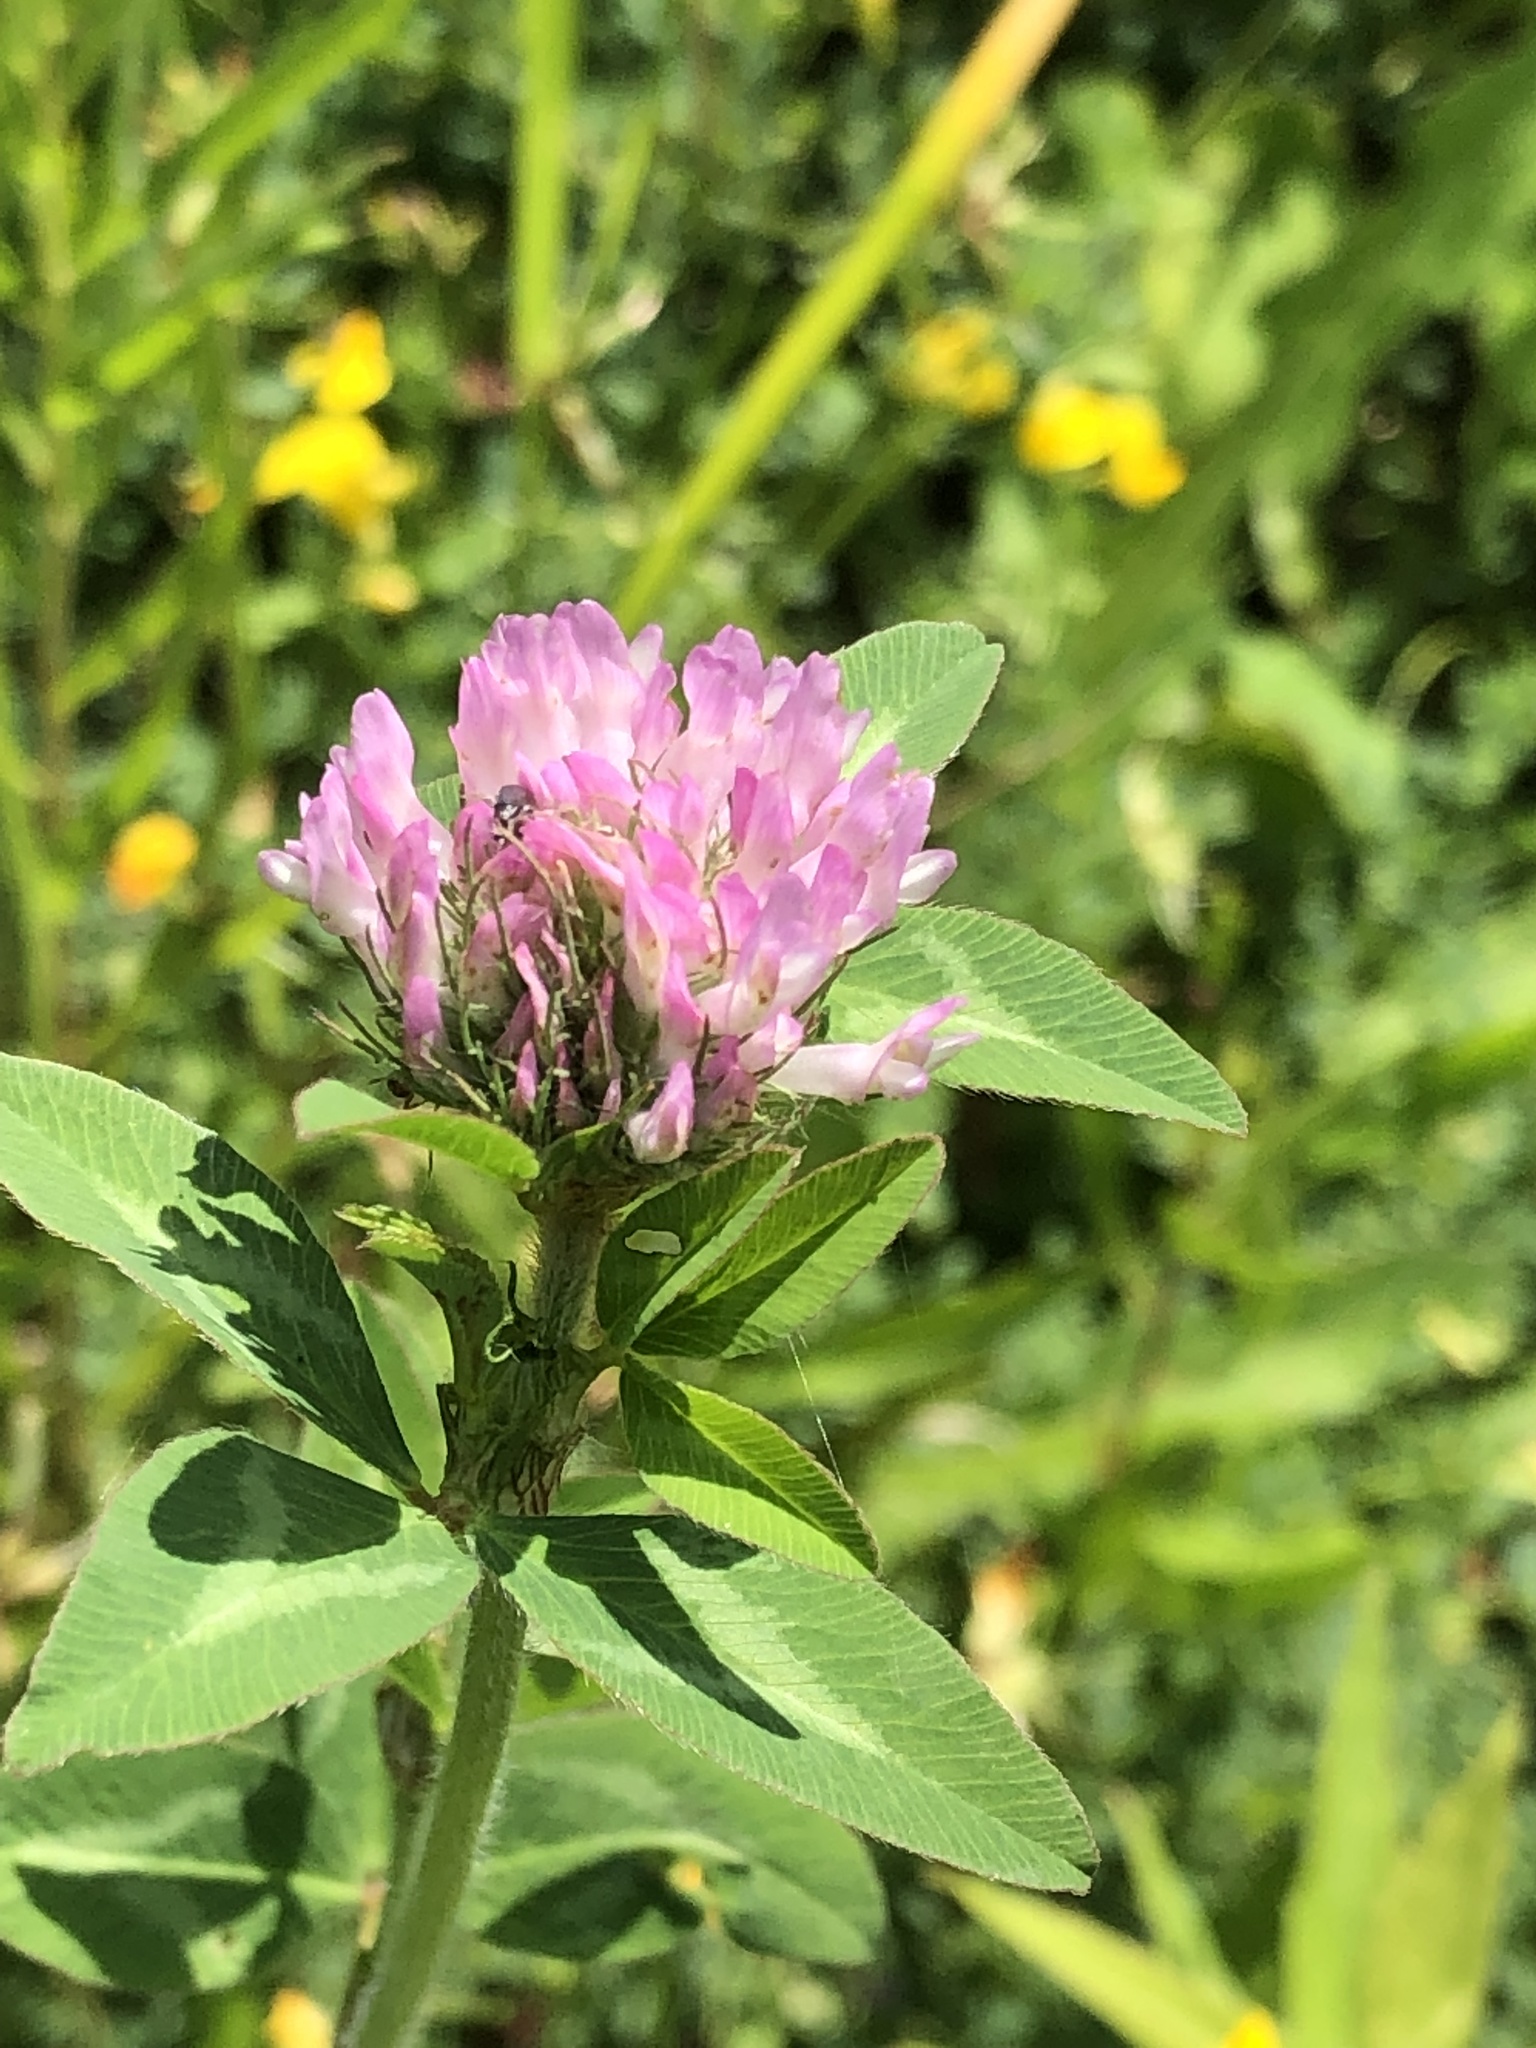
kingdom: Plantae
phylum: Tracheophyta
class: Magnoliopsida
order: Fabales
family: Fabaceae
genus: Trifolium
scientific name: Trifolium pratense
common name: Red clover
